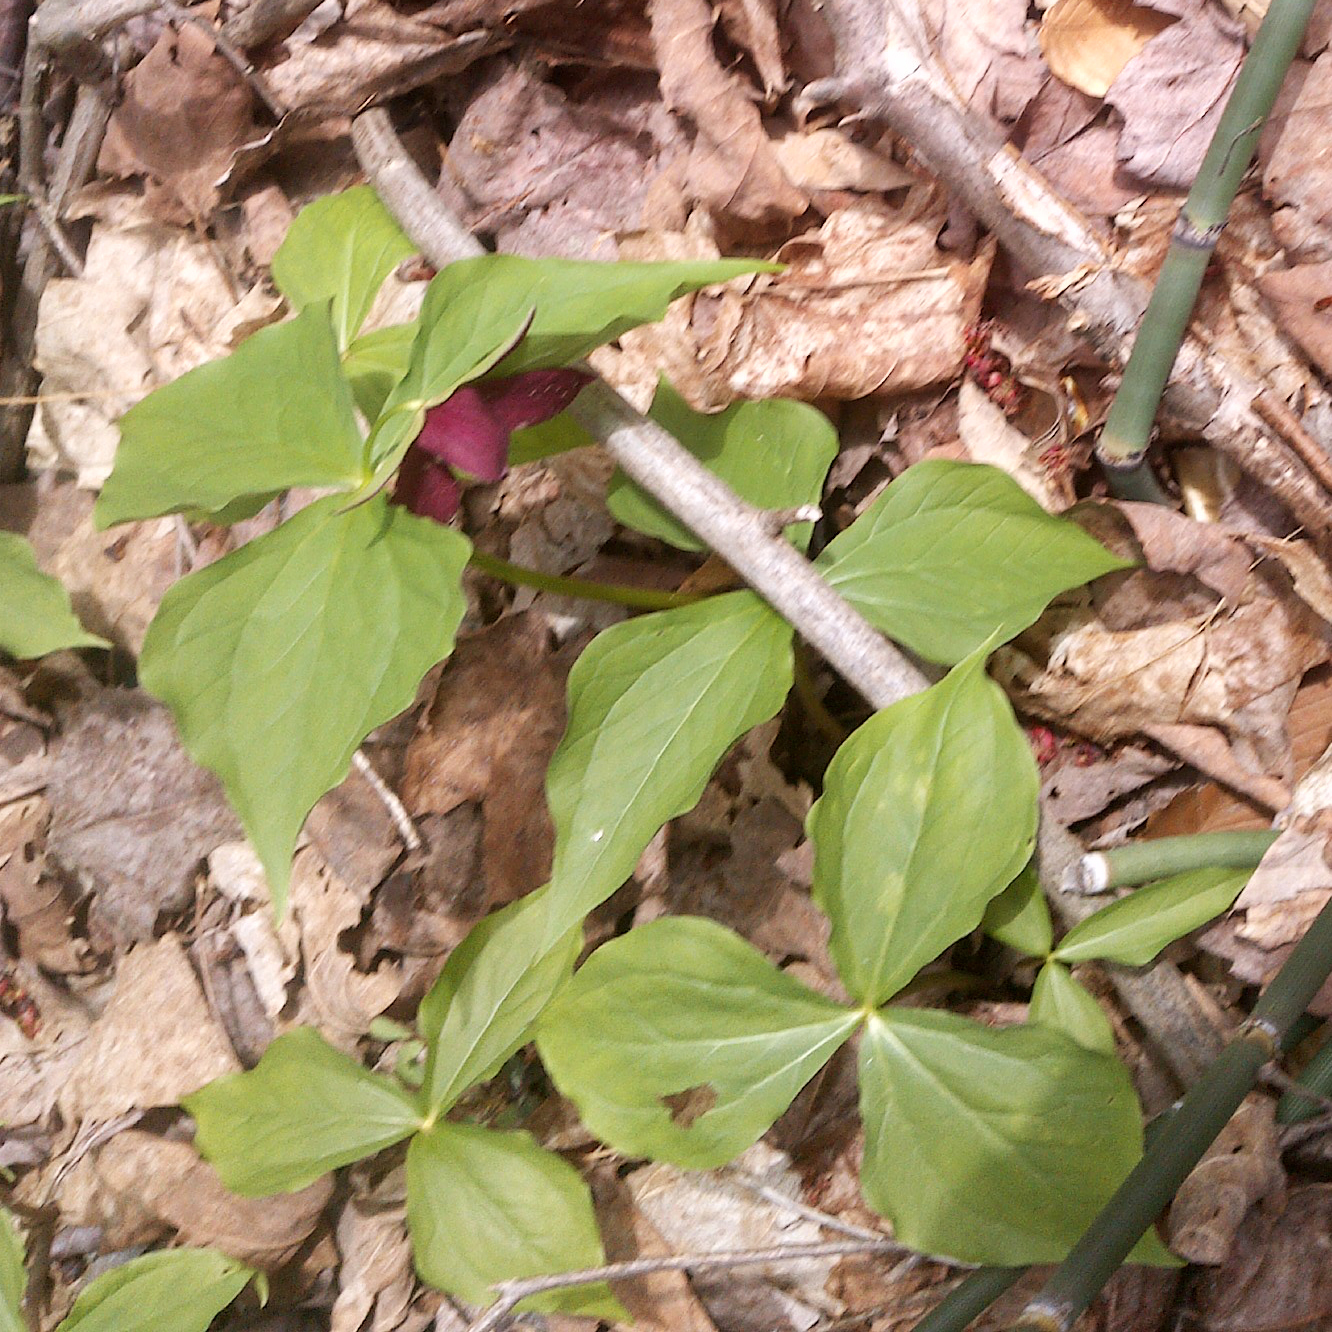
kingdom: Plantae
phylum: Tracheophyta
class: Liliopsida
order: Liliales
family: Melanthiaceae
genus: Trillium
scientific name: Trillium erectum
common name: Purple trillium
